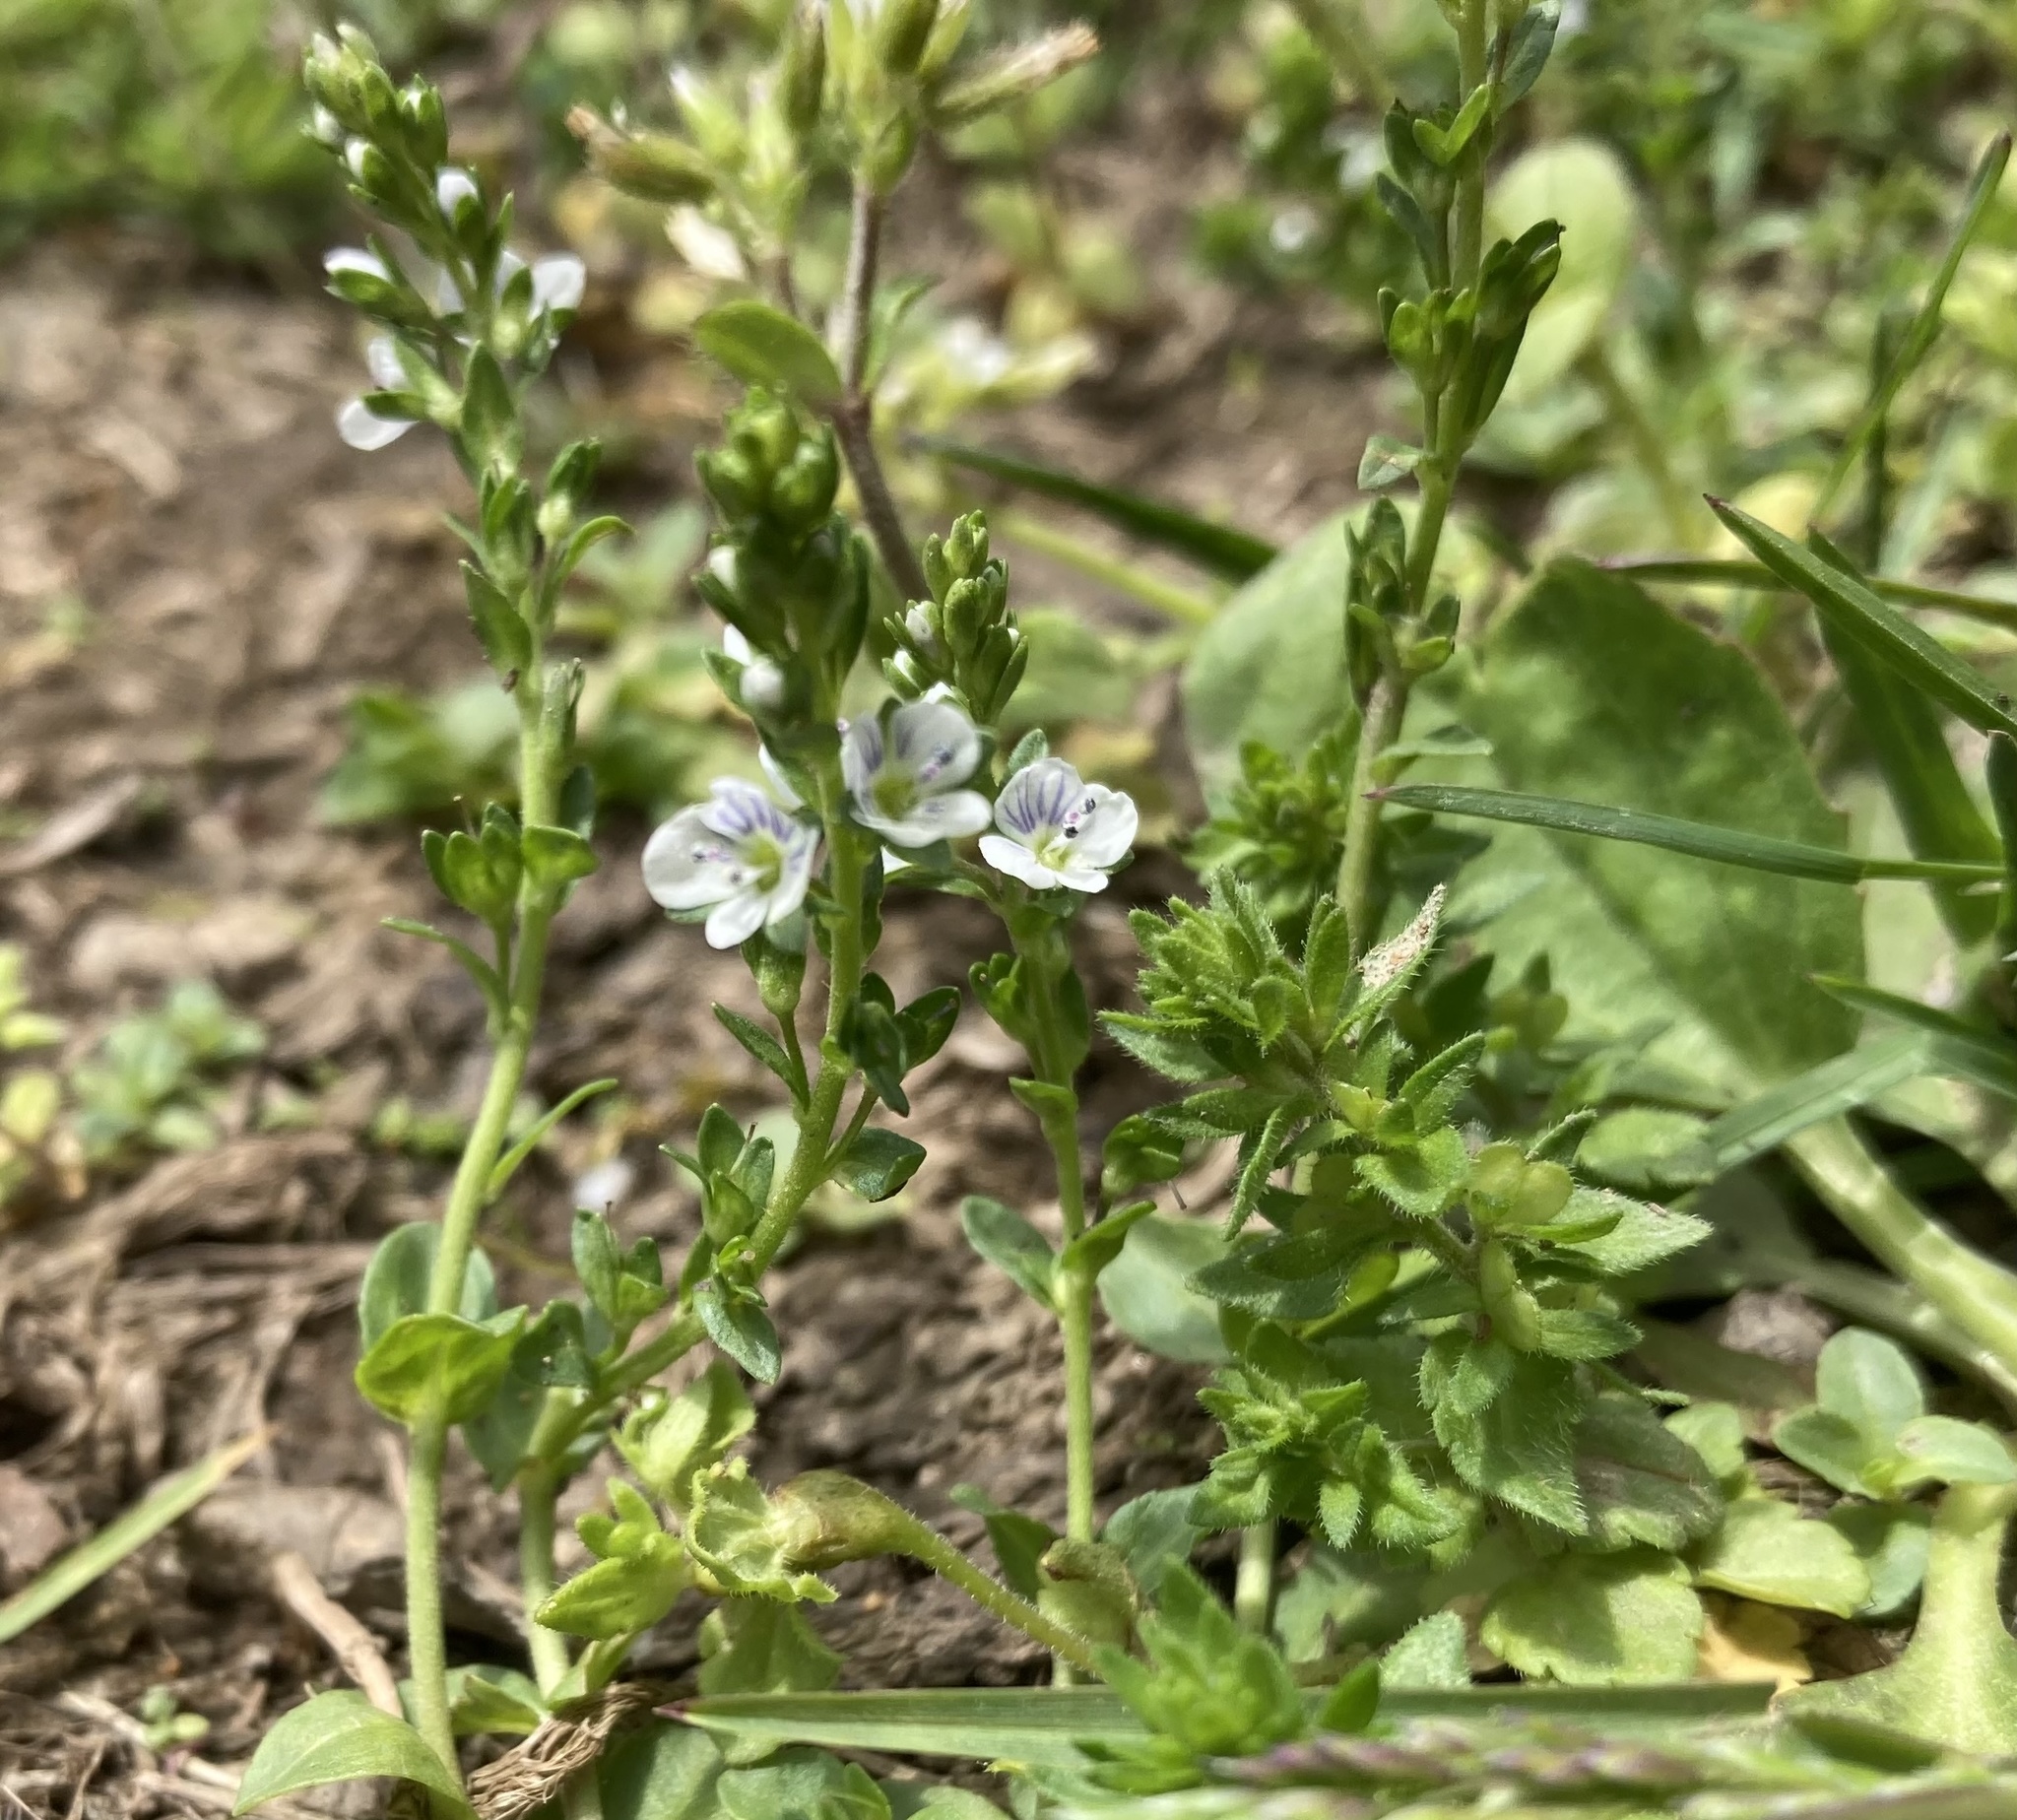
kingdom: Plantae
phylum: Tracheophyta
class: Magnoliopsida
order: Lamiales
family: Plantaginaceae
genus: Veronica
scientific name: Veronica serpyllifolia
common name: Thyme-leaved speedwell
